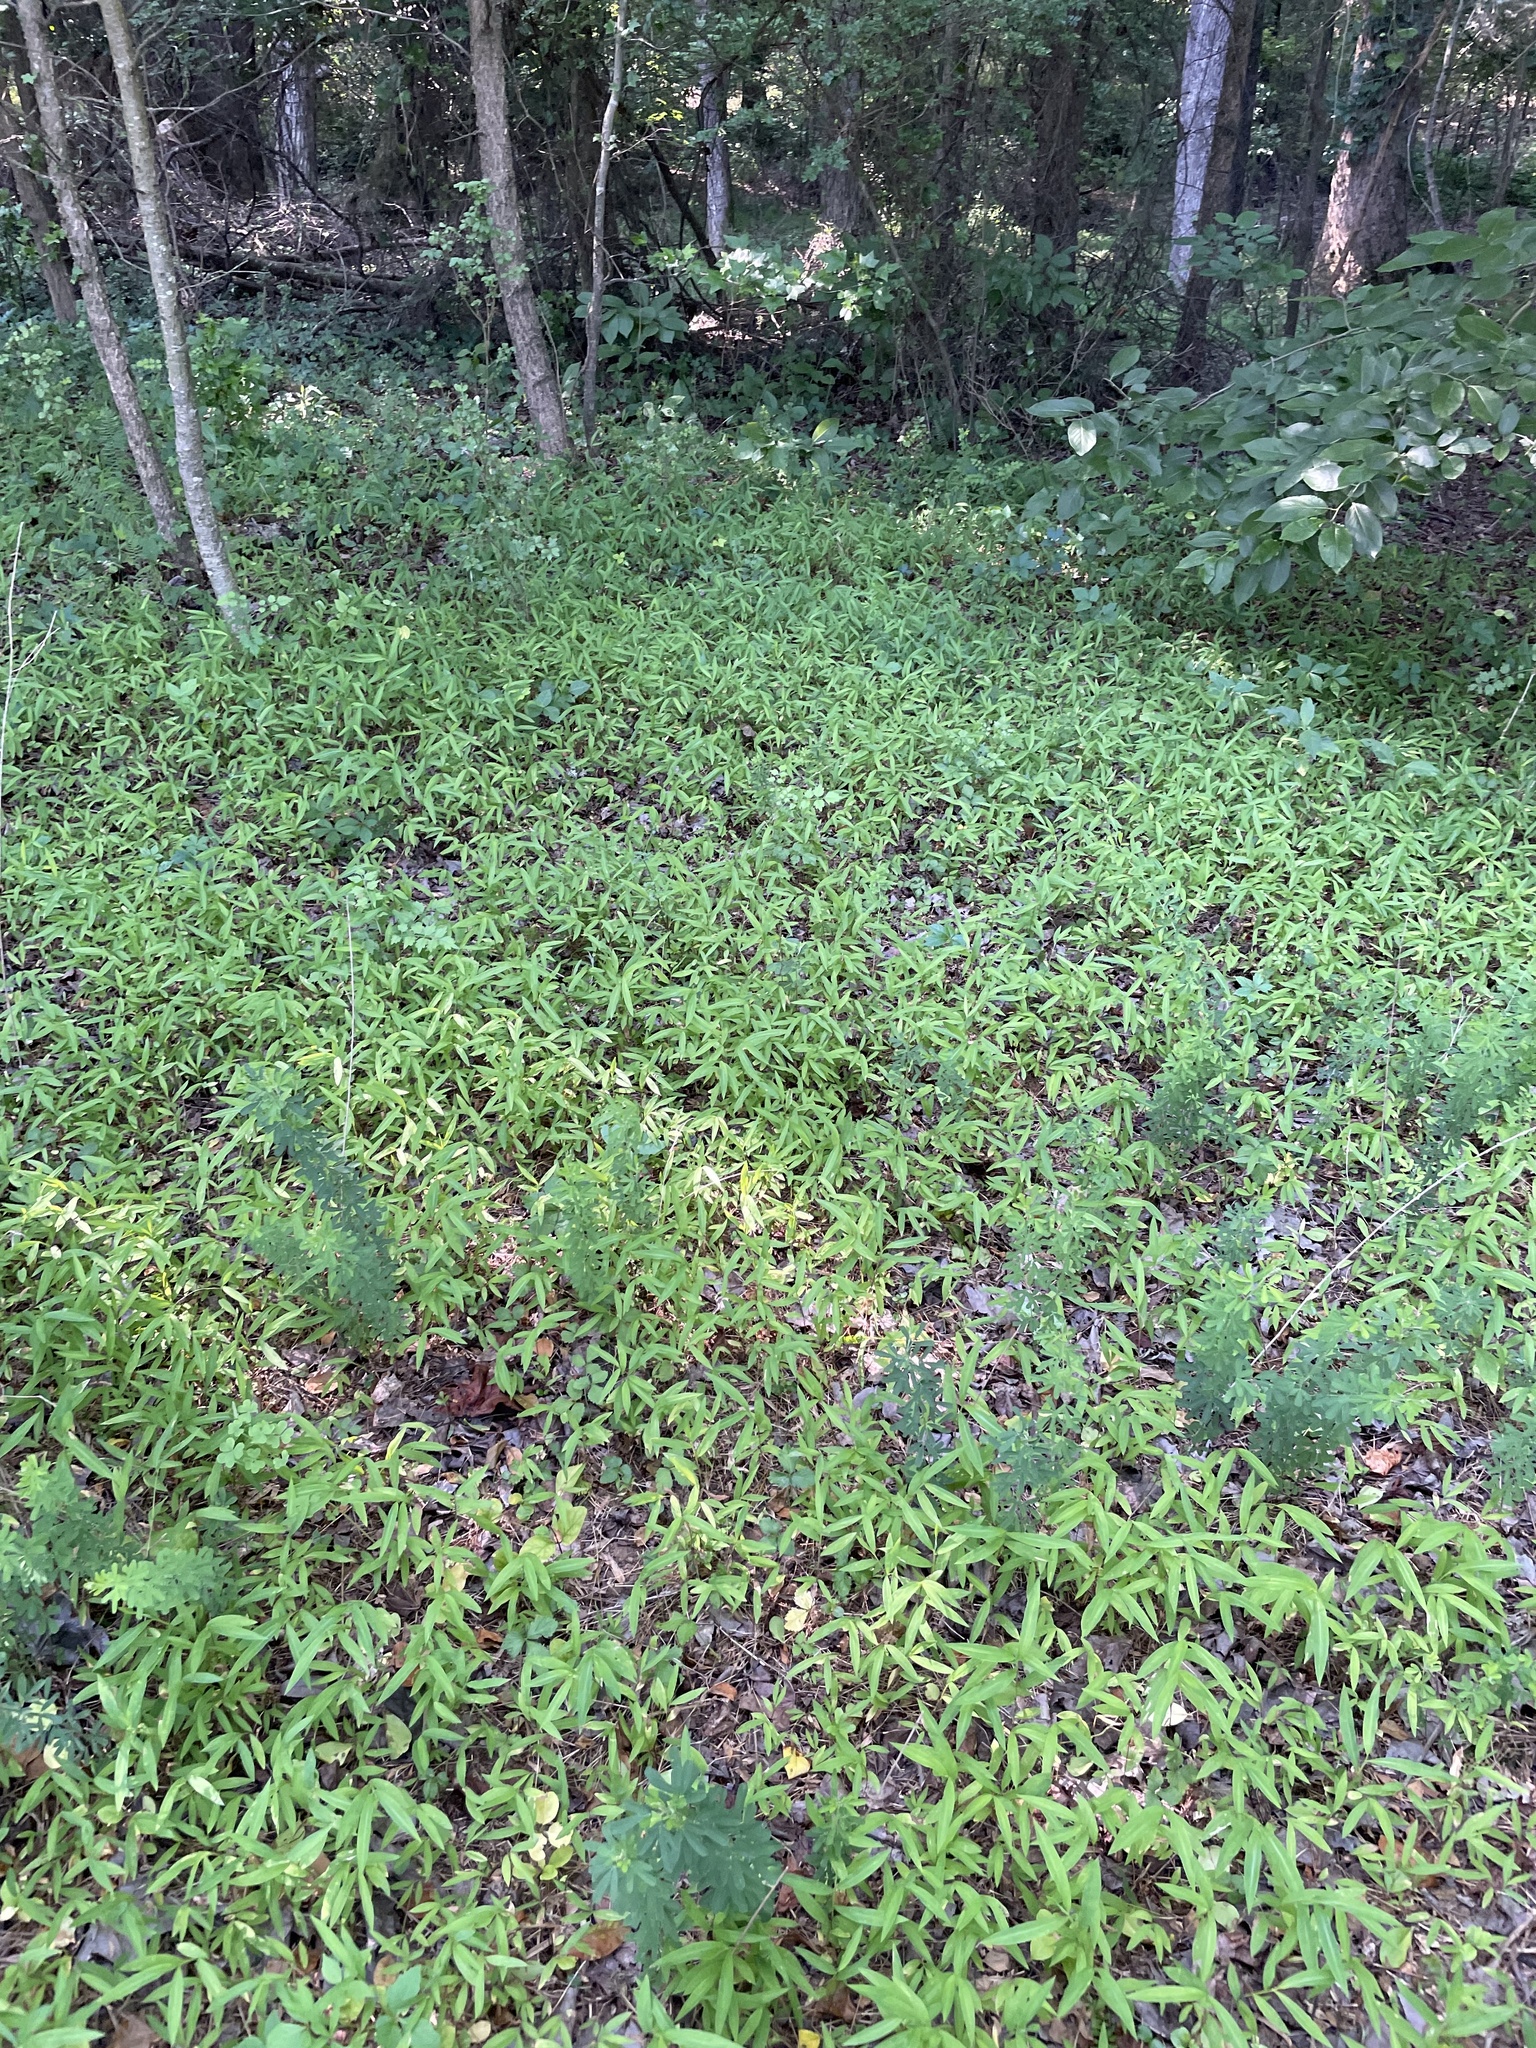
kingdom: Plantae
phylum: Tracheophyta
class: Liliopsida
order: Poales
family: Poaceae
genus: Microstegium
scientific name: Microstegium vimineum
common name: Japanese stiltgrass
